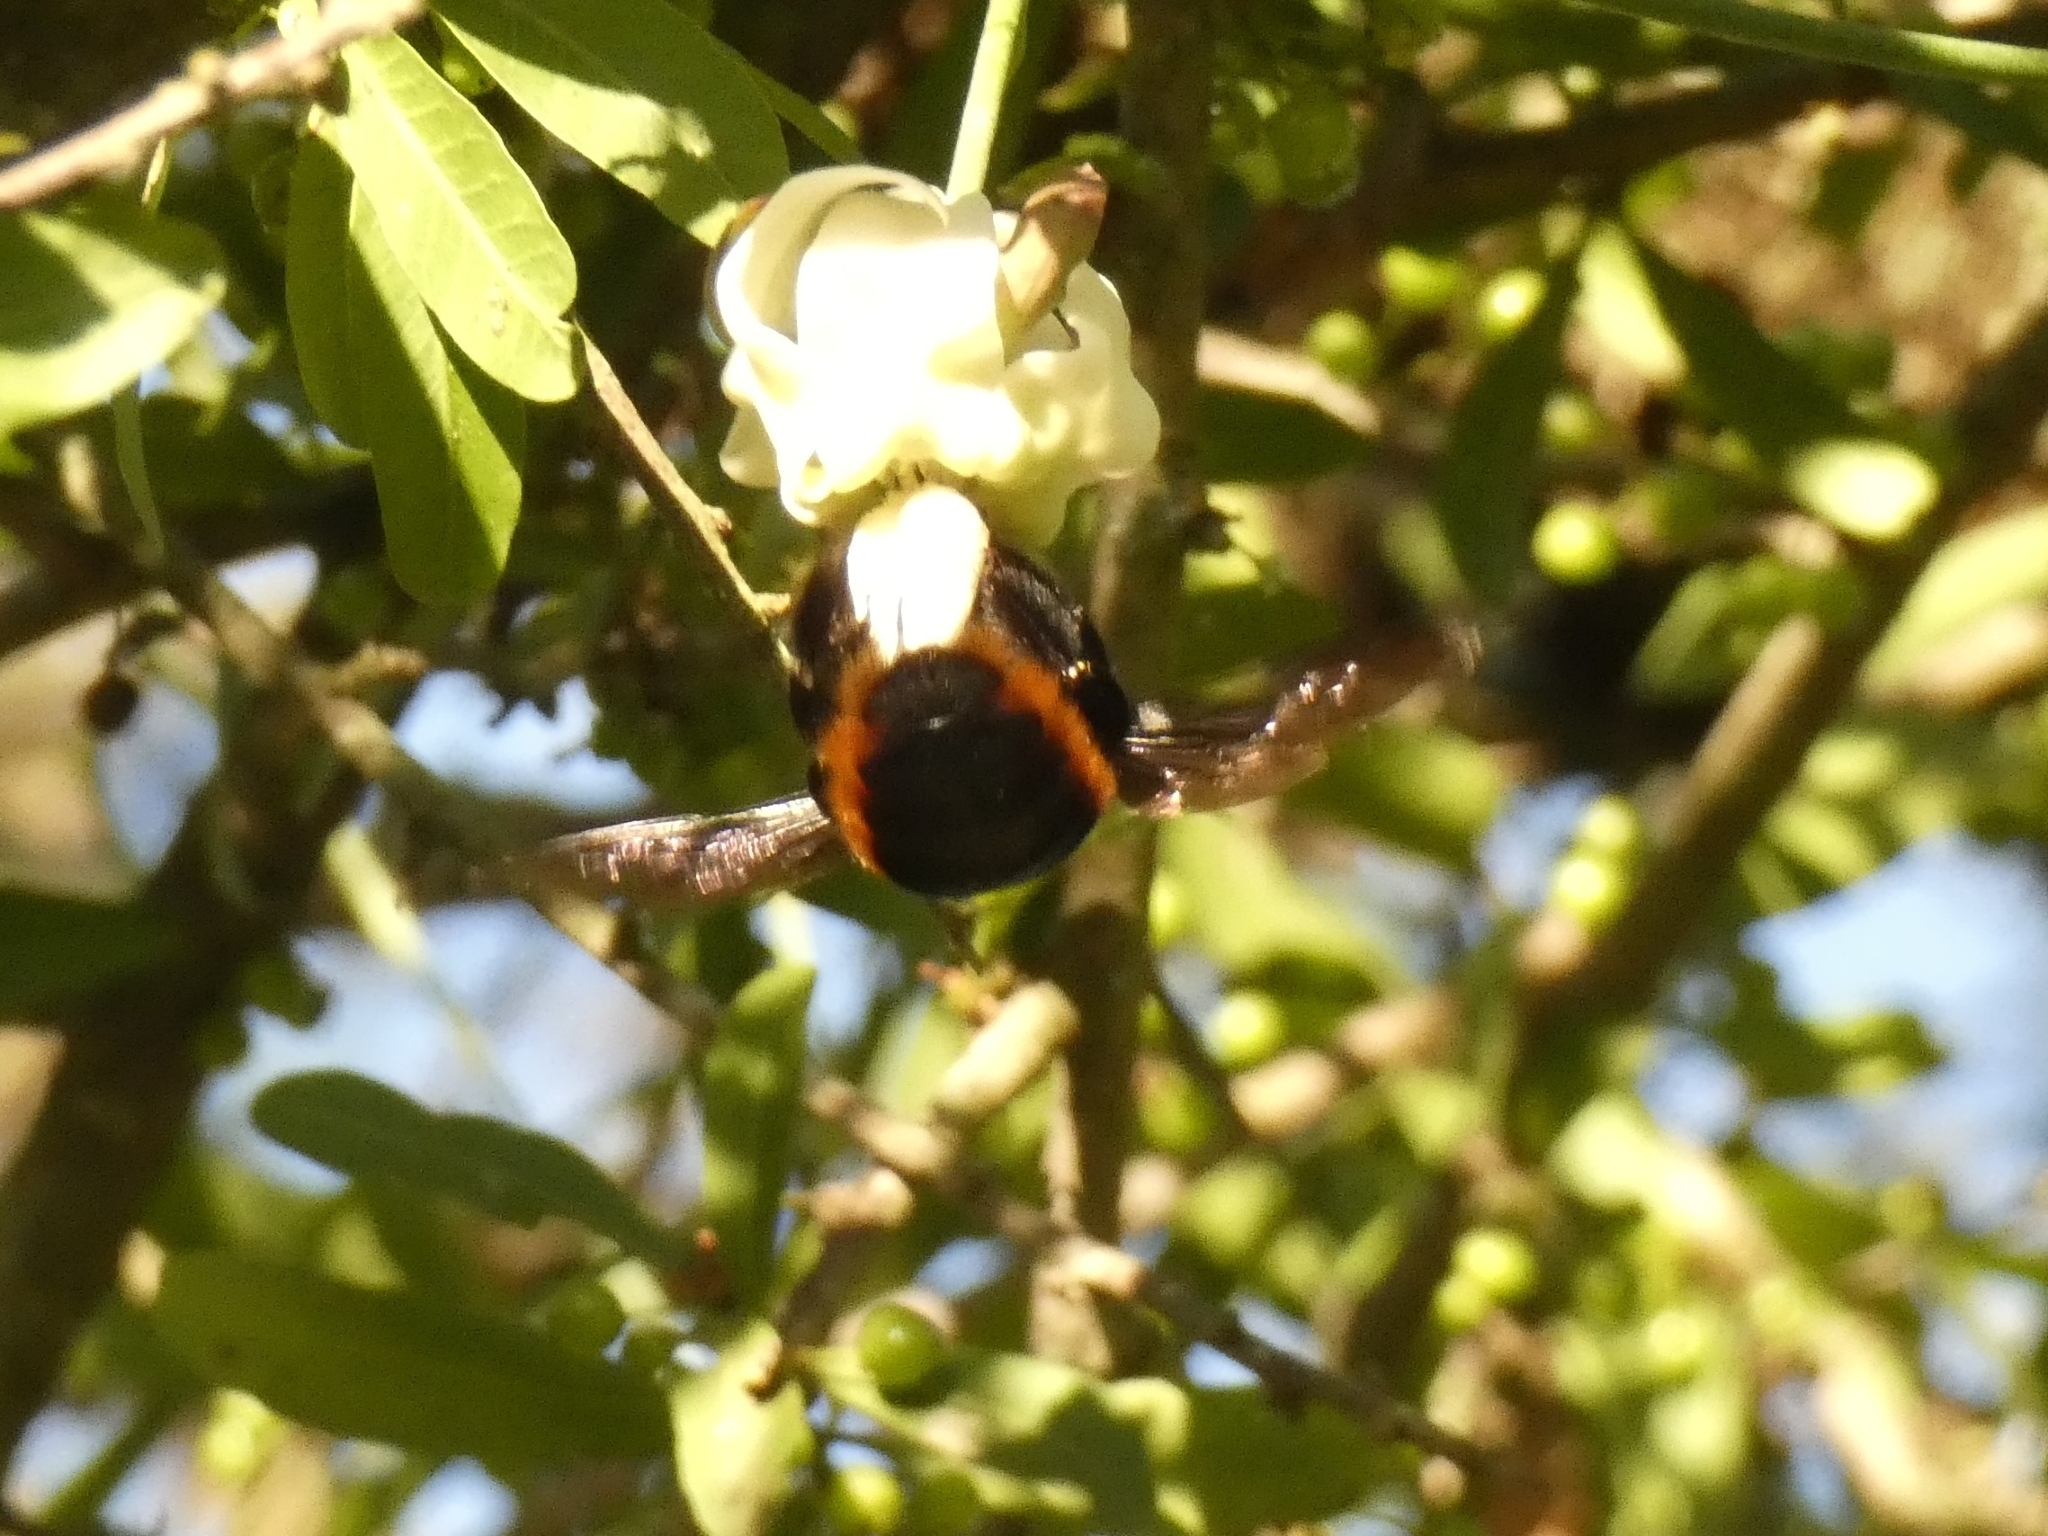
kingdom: Animalia
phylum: Arthropoda
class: Insecta
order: Hymenoptera
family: Apidae
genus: Xylocopa
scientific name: Xylocopa augusti
